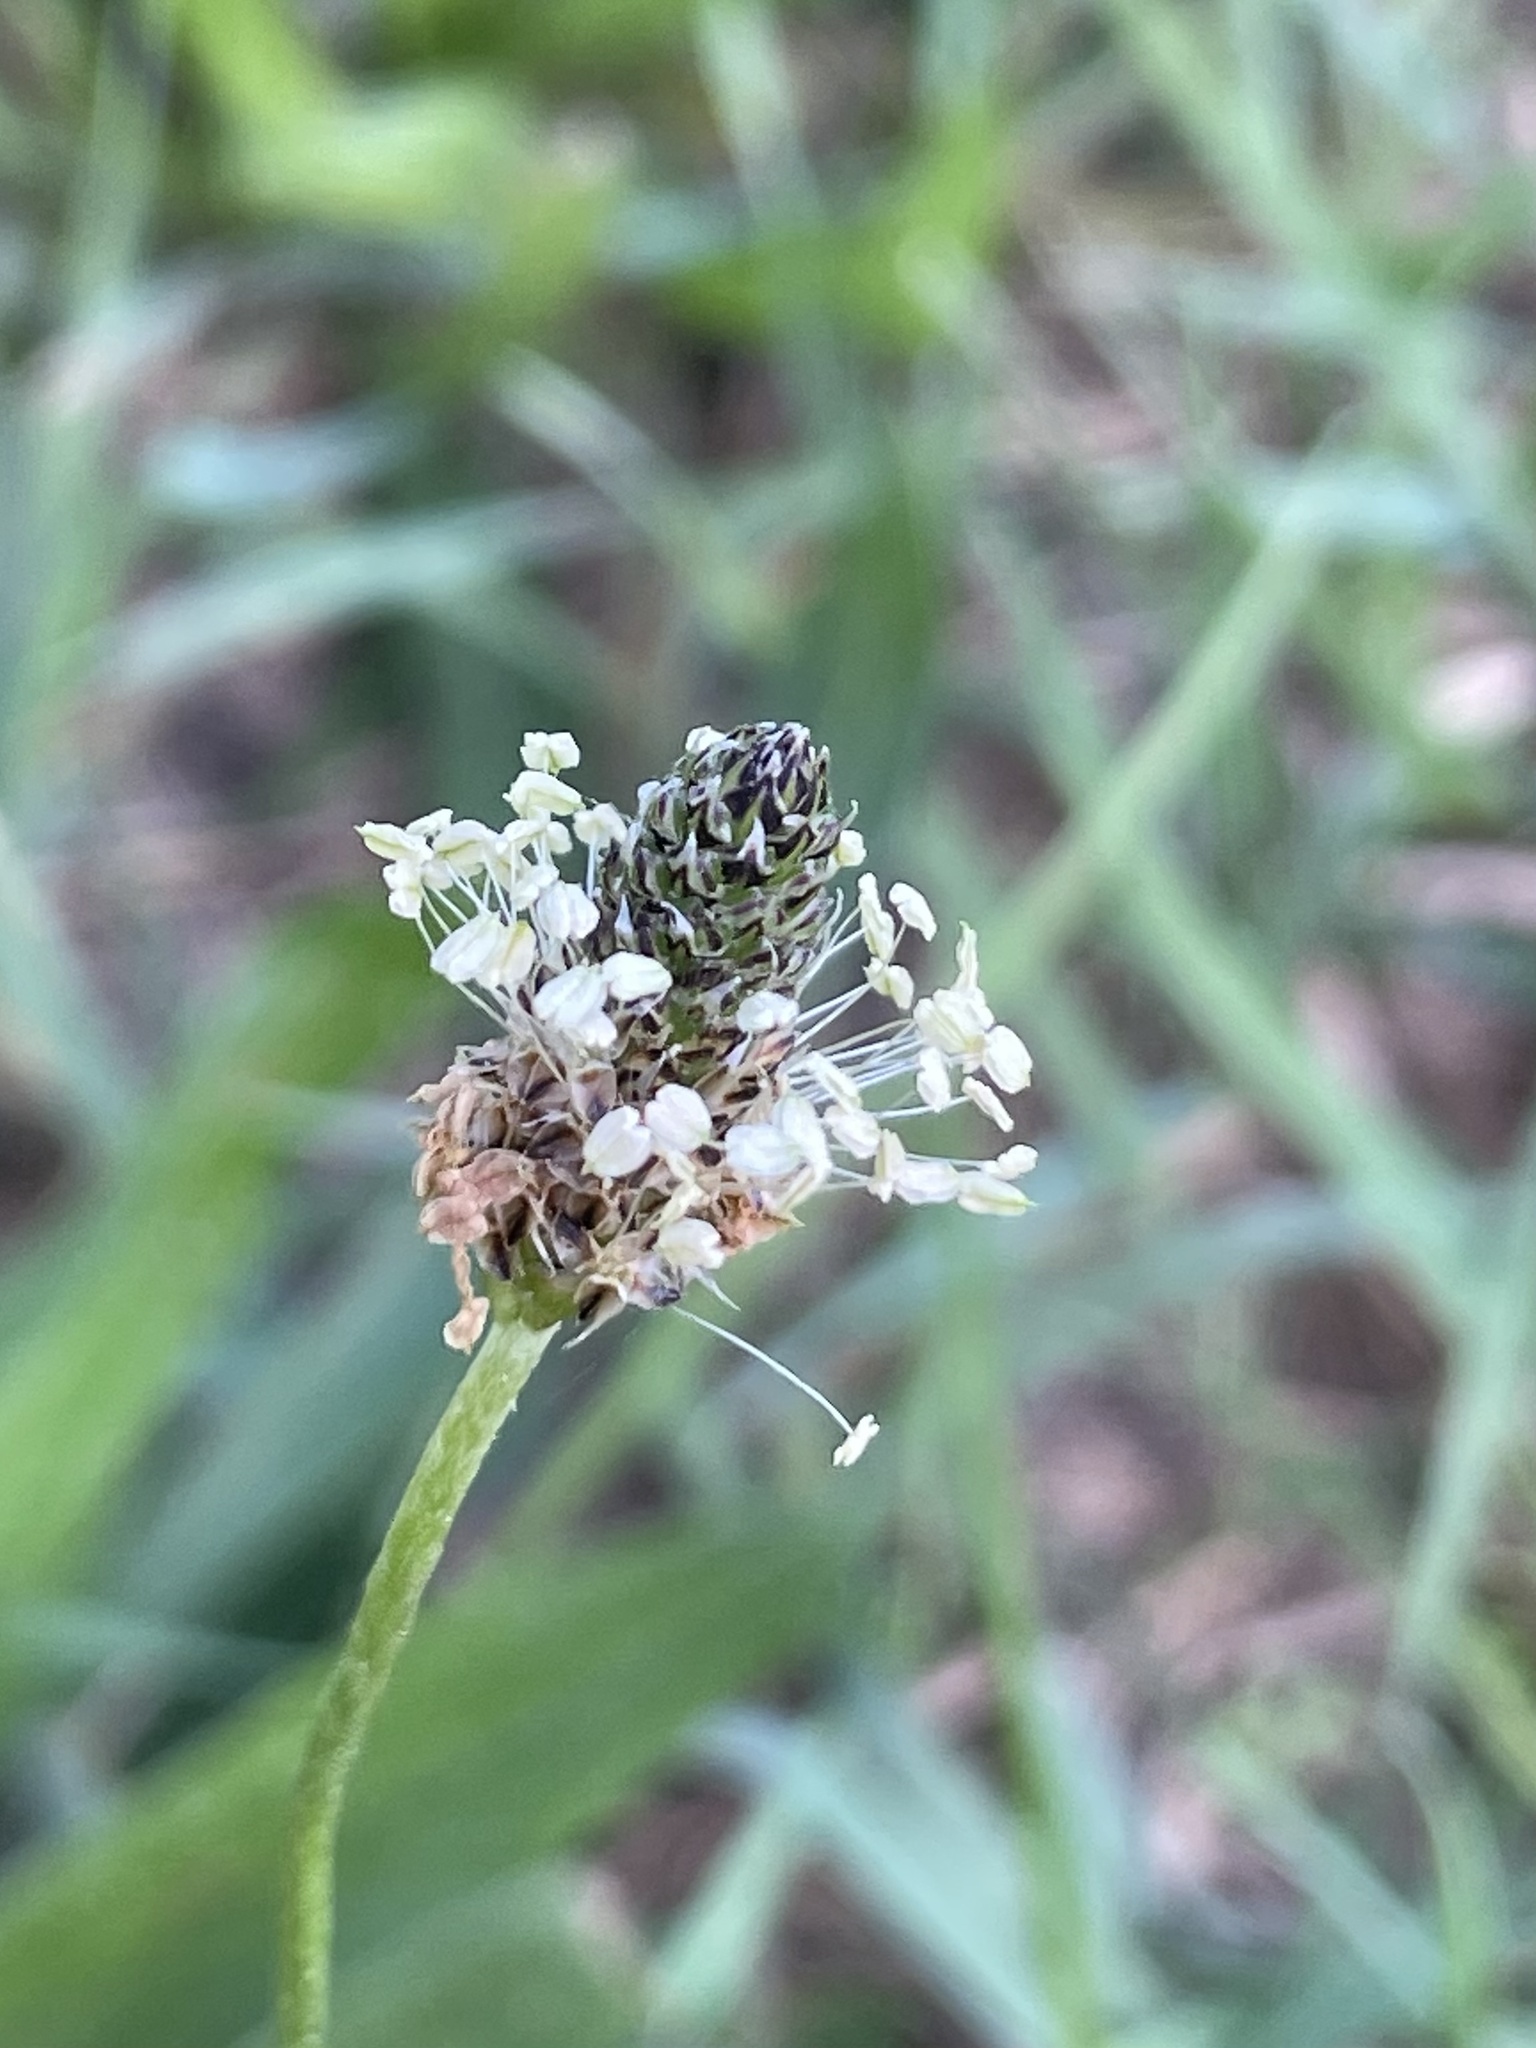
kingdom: Plantae
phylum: Tracheophyta
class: Magnoliopsida
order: Lamiales
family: Plantaginaceae
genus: Plantago
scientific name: Plantago lanceolata
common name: Ribwort plantain
